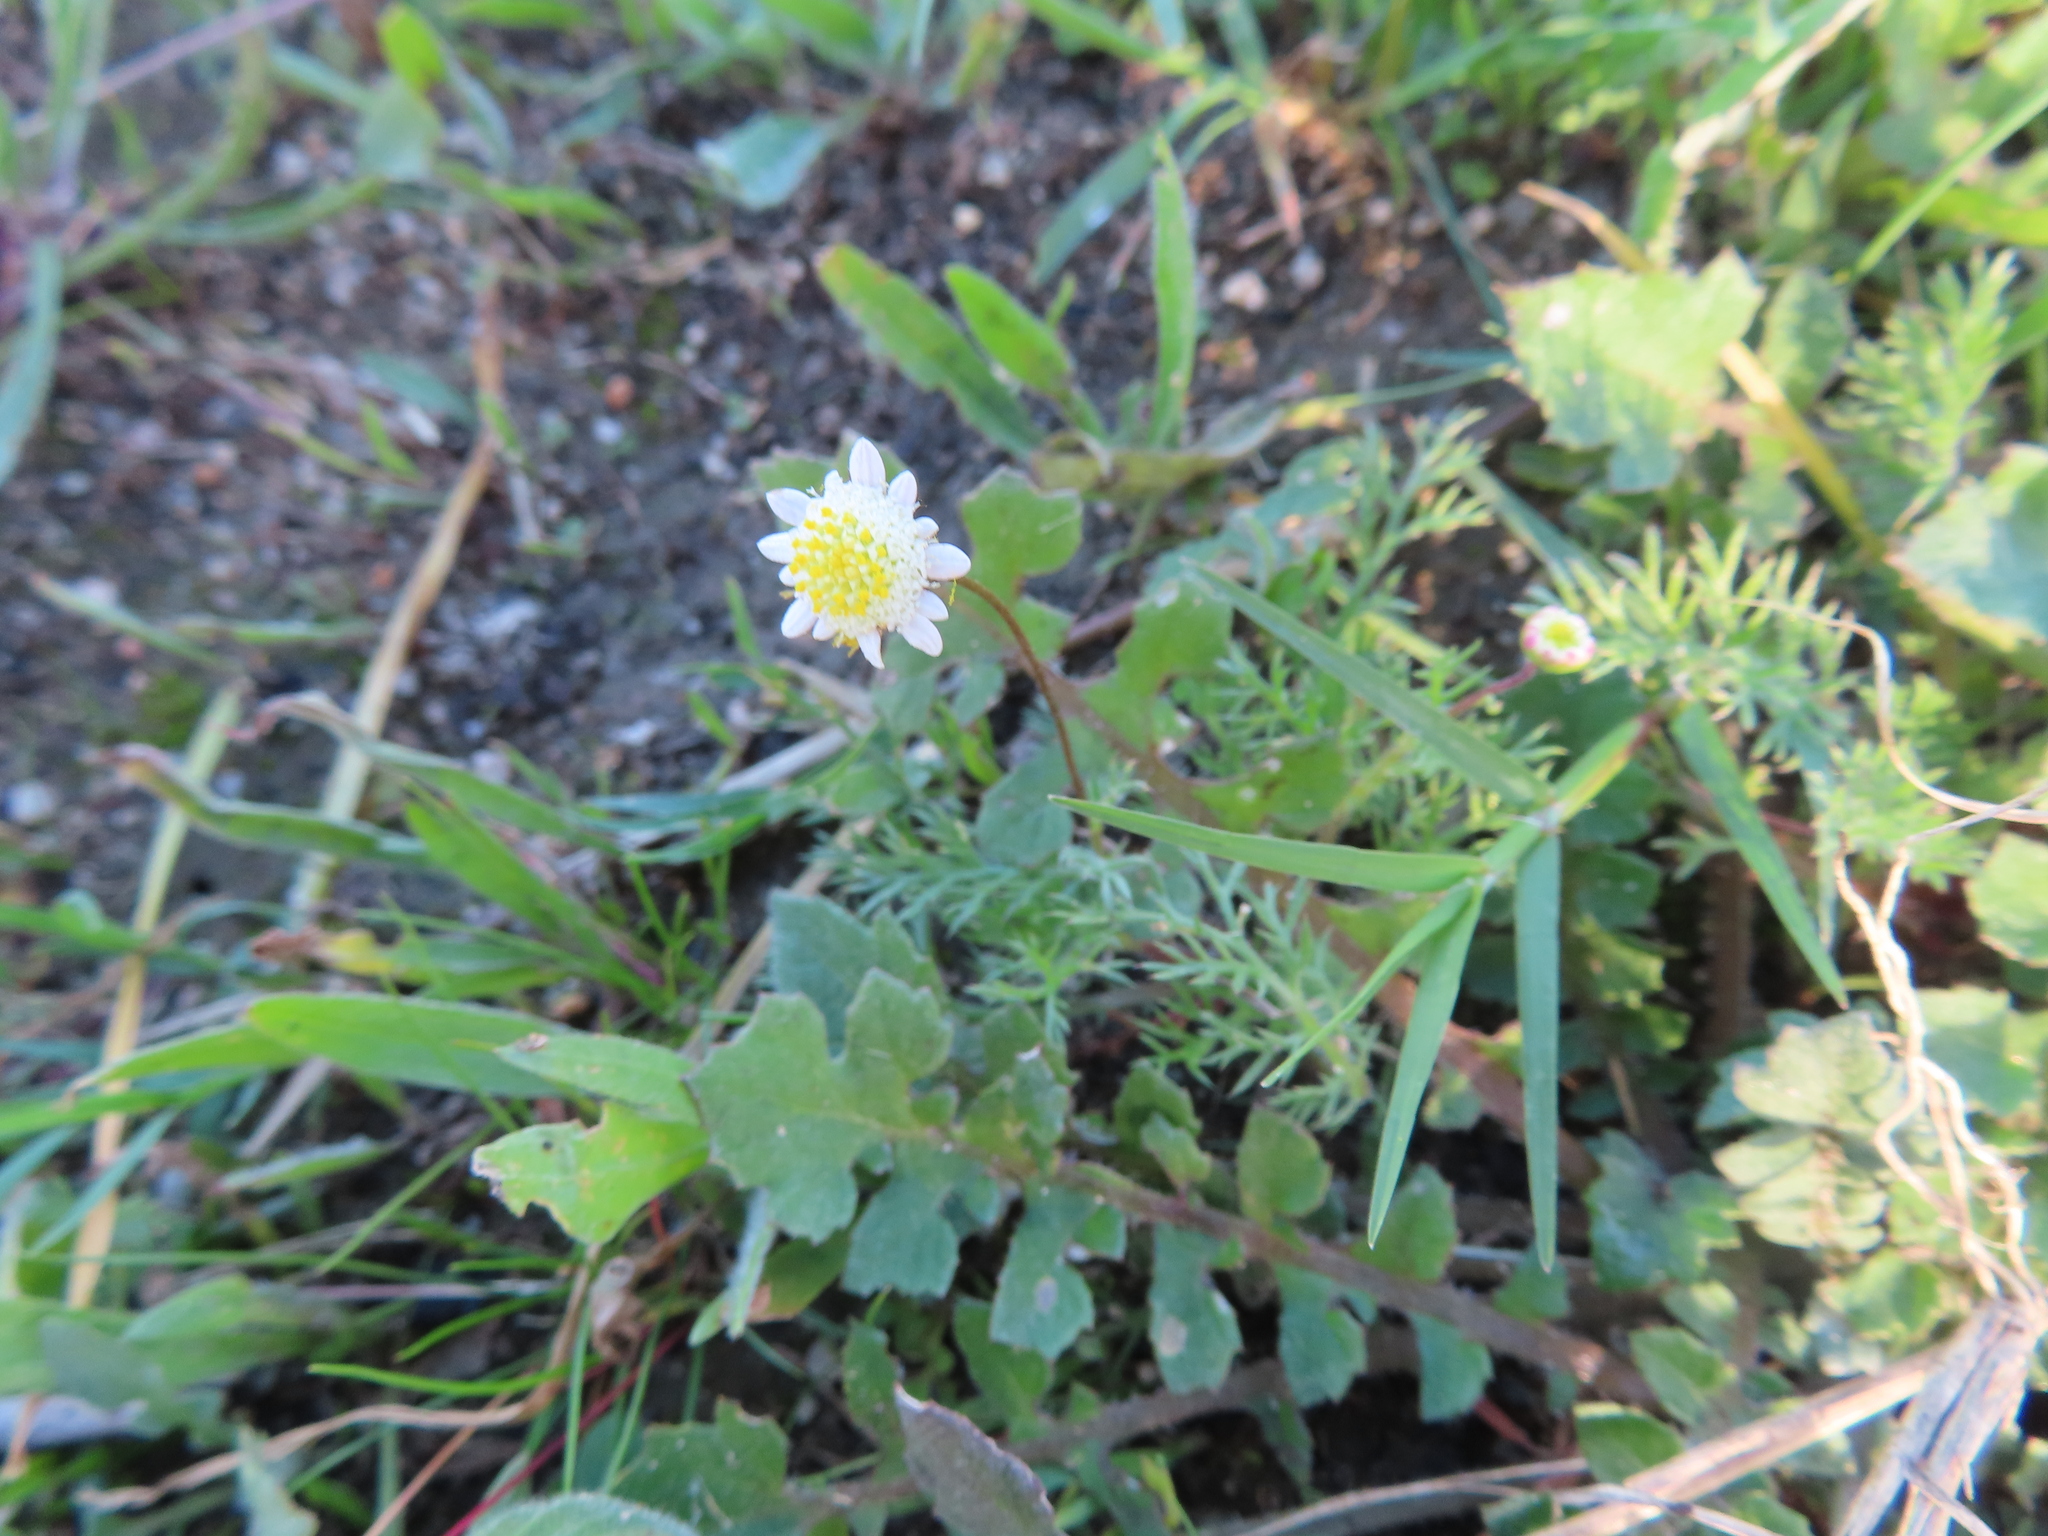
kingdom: Plantae
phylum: Tracheophyta
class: Magnoliopsida
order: Asterales
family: Asteraceae
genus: Cotula
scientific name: Cotula turbinata
